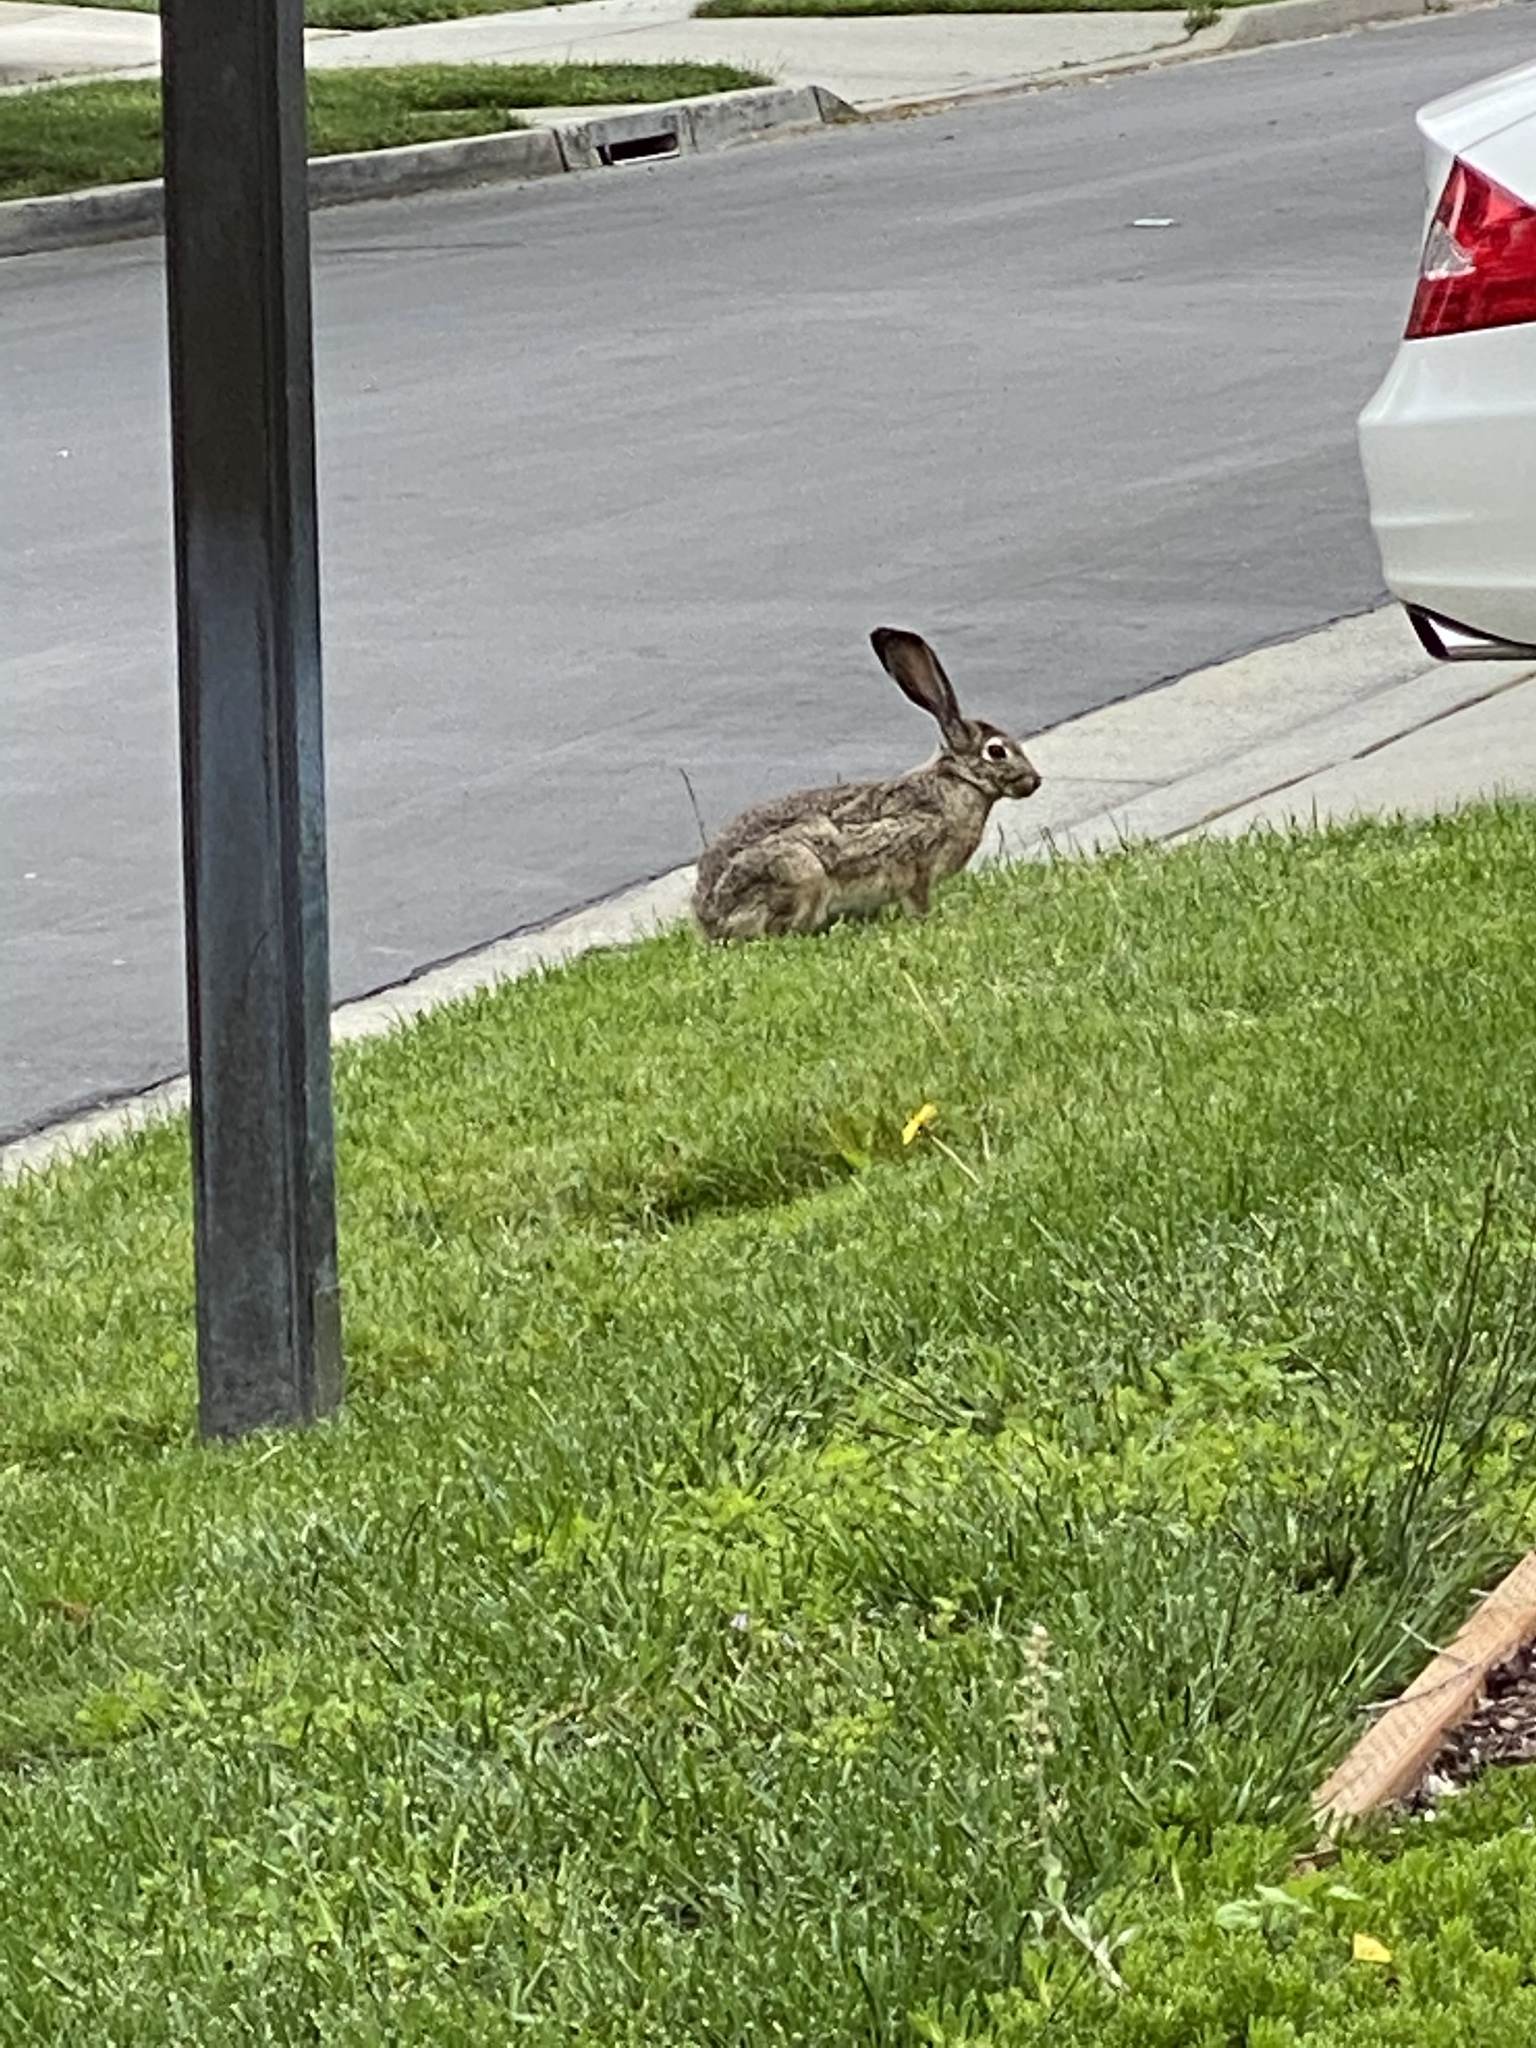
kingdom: Animalia
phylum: Chordata
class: Mammalia
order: Lagomorpha
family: Leporidae
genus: Lepus
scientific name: Lepus californicus
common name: Black-tailed jackrabbit
